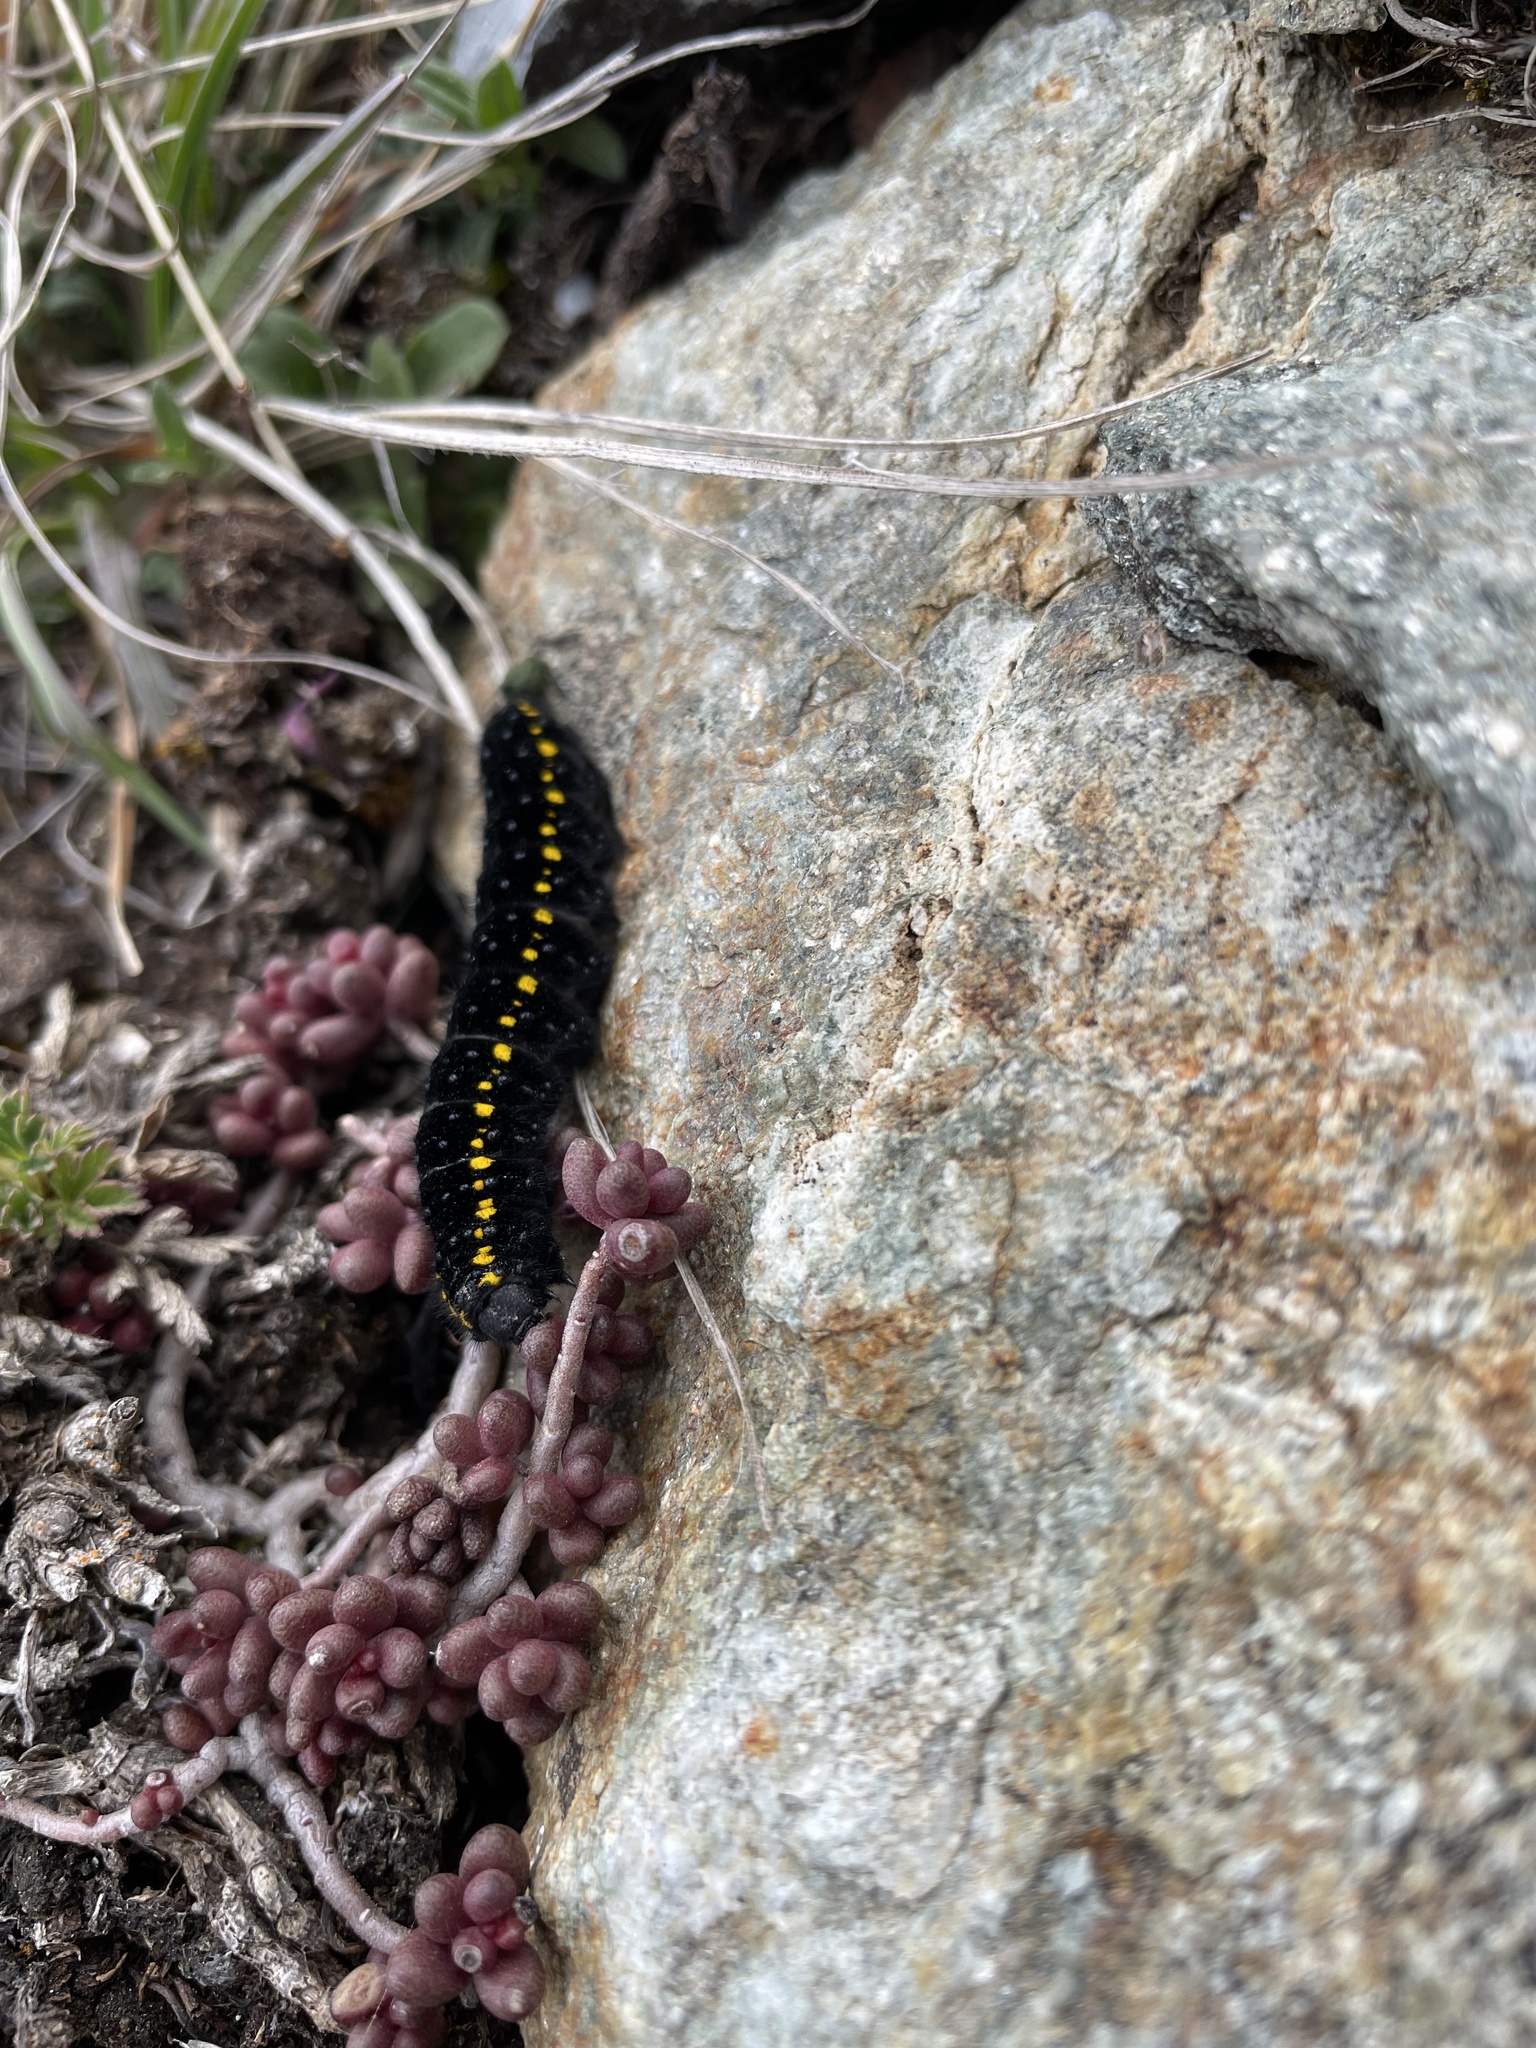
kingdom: Animalia
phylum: Arthropoda
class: Insecta
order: Lepidoptera
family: Papilionidae
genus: Parnassius
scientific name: Parnassius apollo
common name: Apollo
